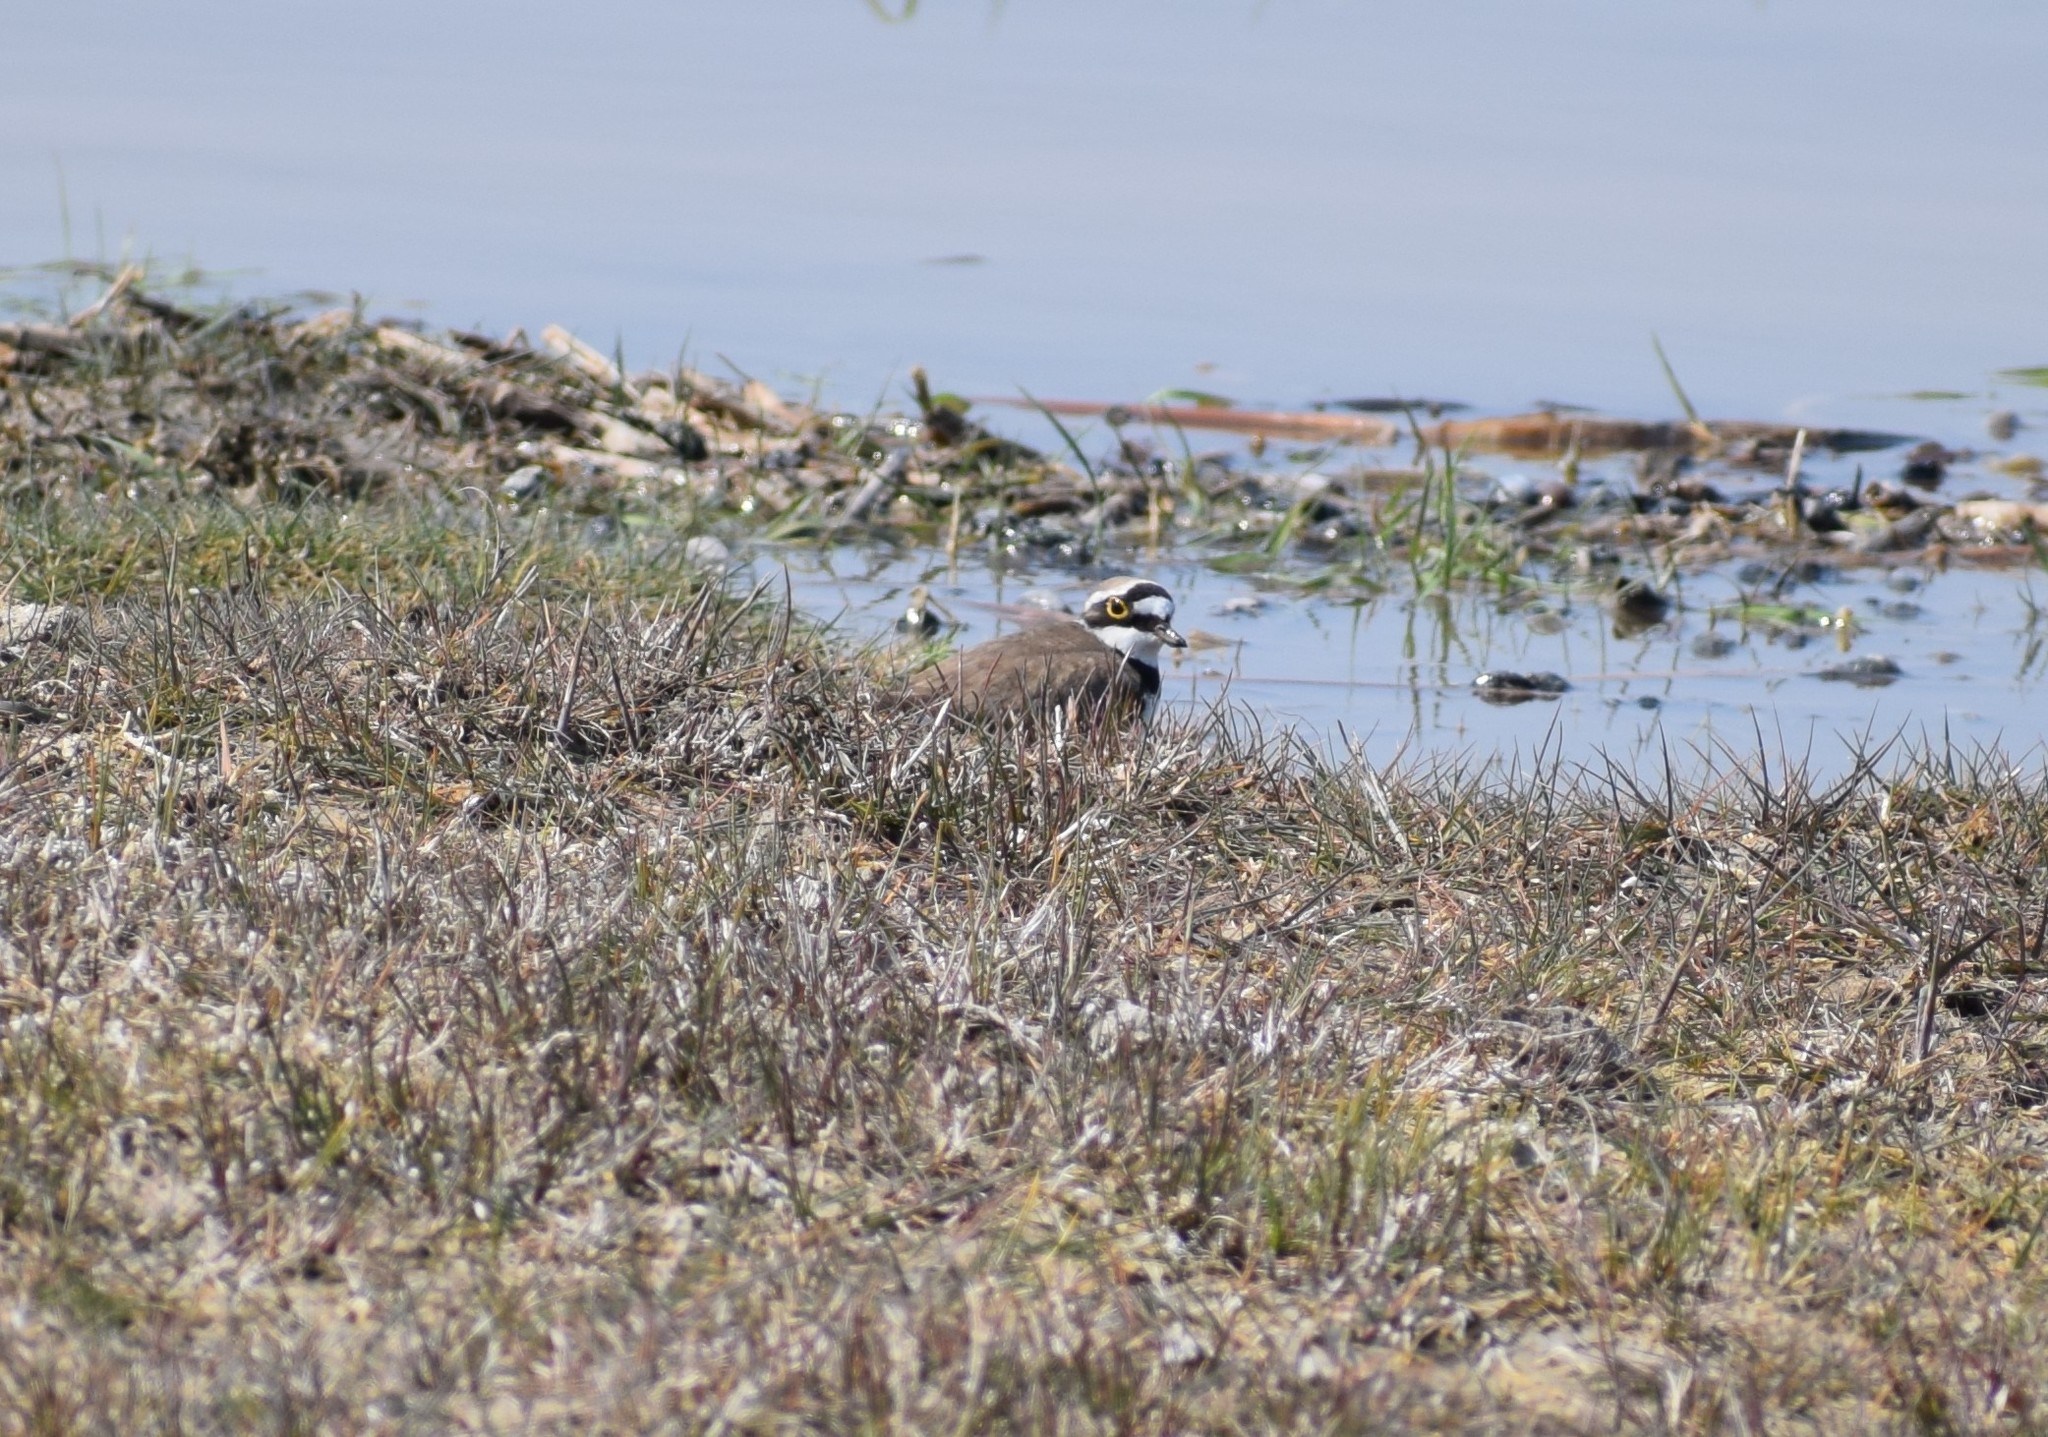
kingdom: Animalia
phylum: Chordata
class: Aves
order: Charadriiformes
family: Charadriidae
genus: Charadrius
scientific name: Charadrius dubius
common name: Little ringed plover
